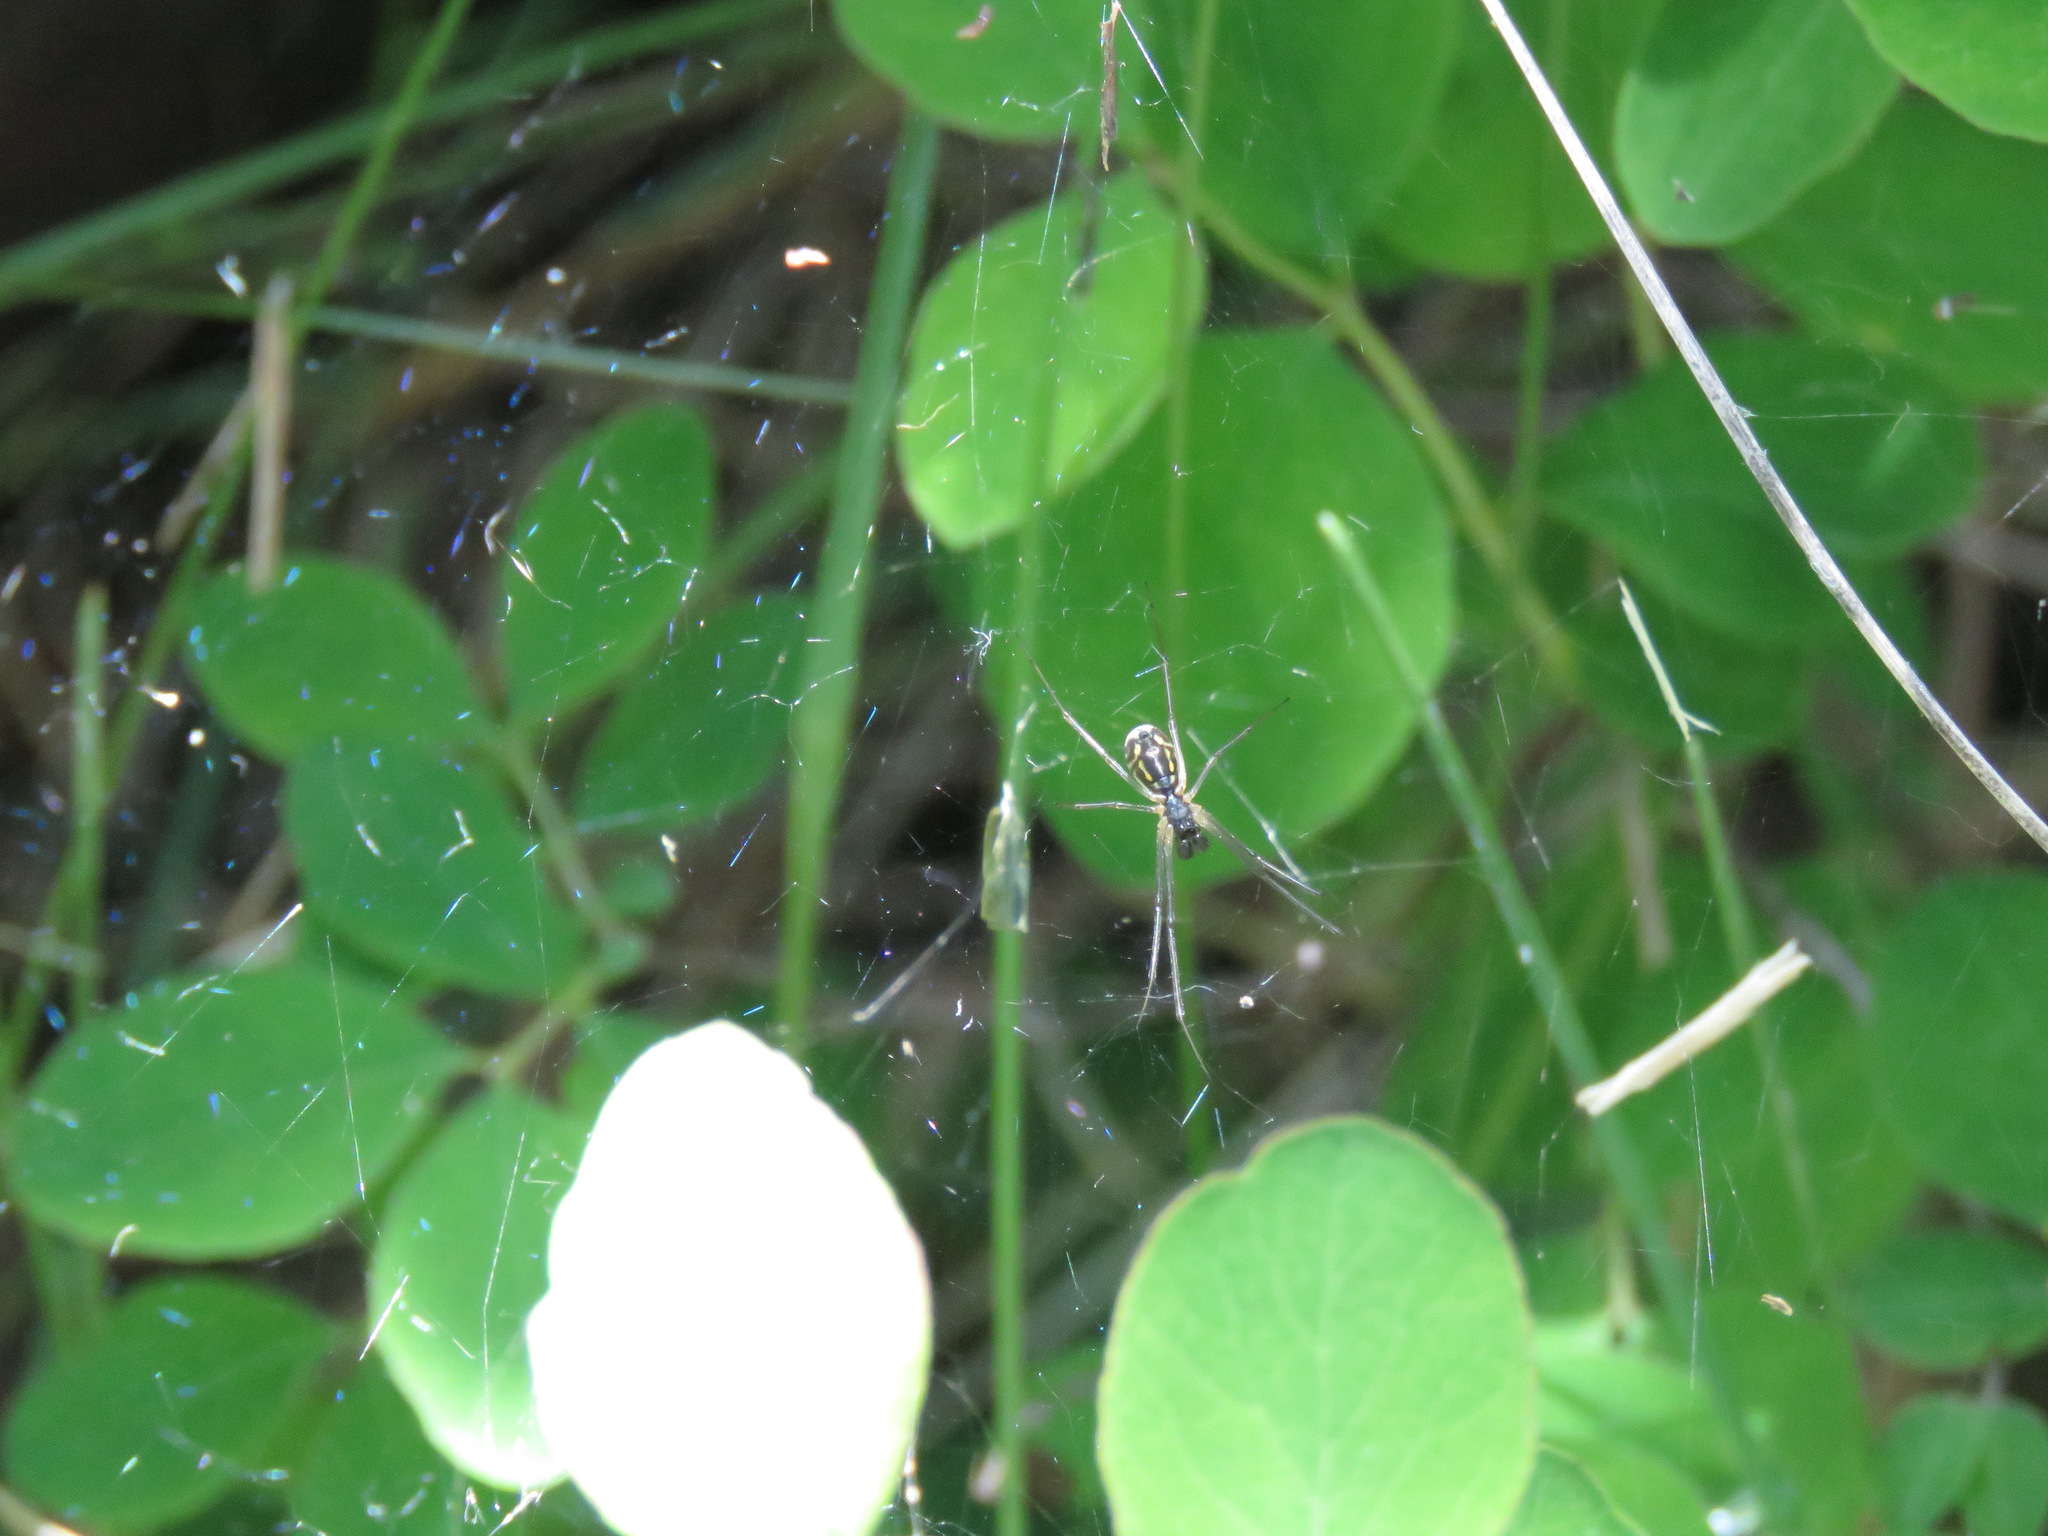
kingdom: Animalia
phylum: Arthropoda
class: Arachnida
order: Araneae
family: Linyphiidae
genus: Neriene
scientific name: Neriene radiata
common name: Filmy dome spider
